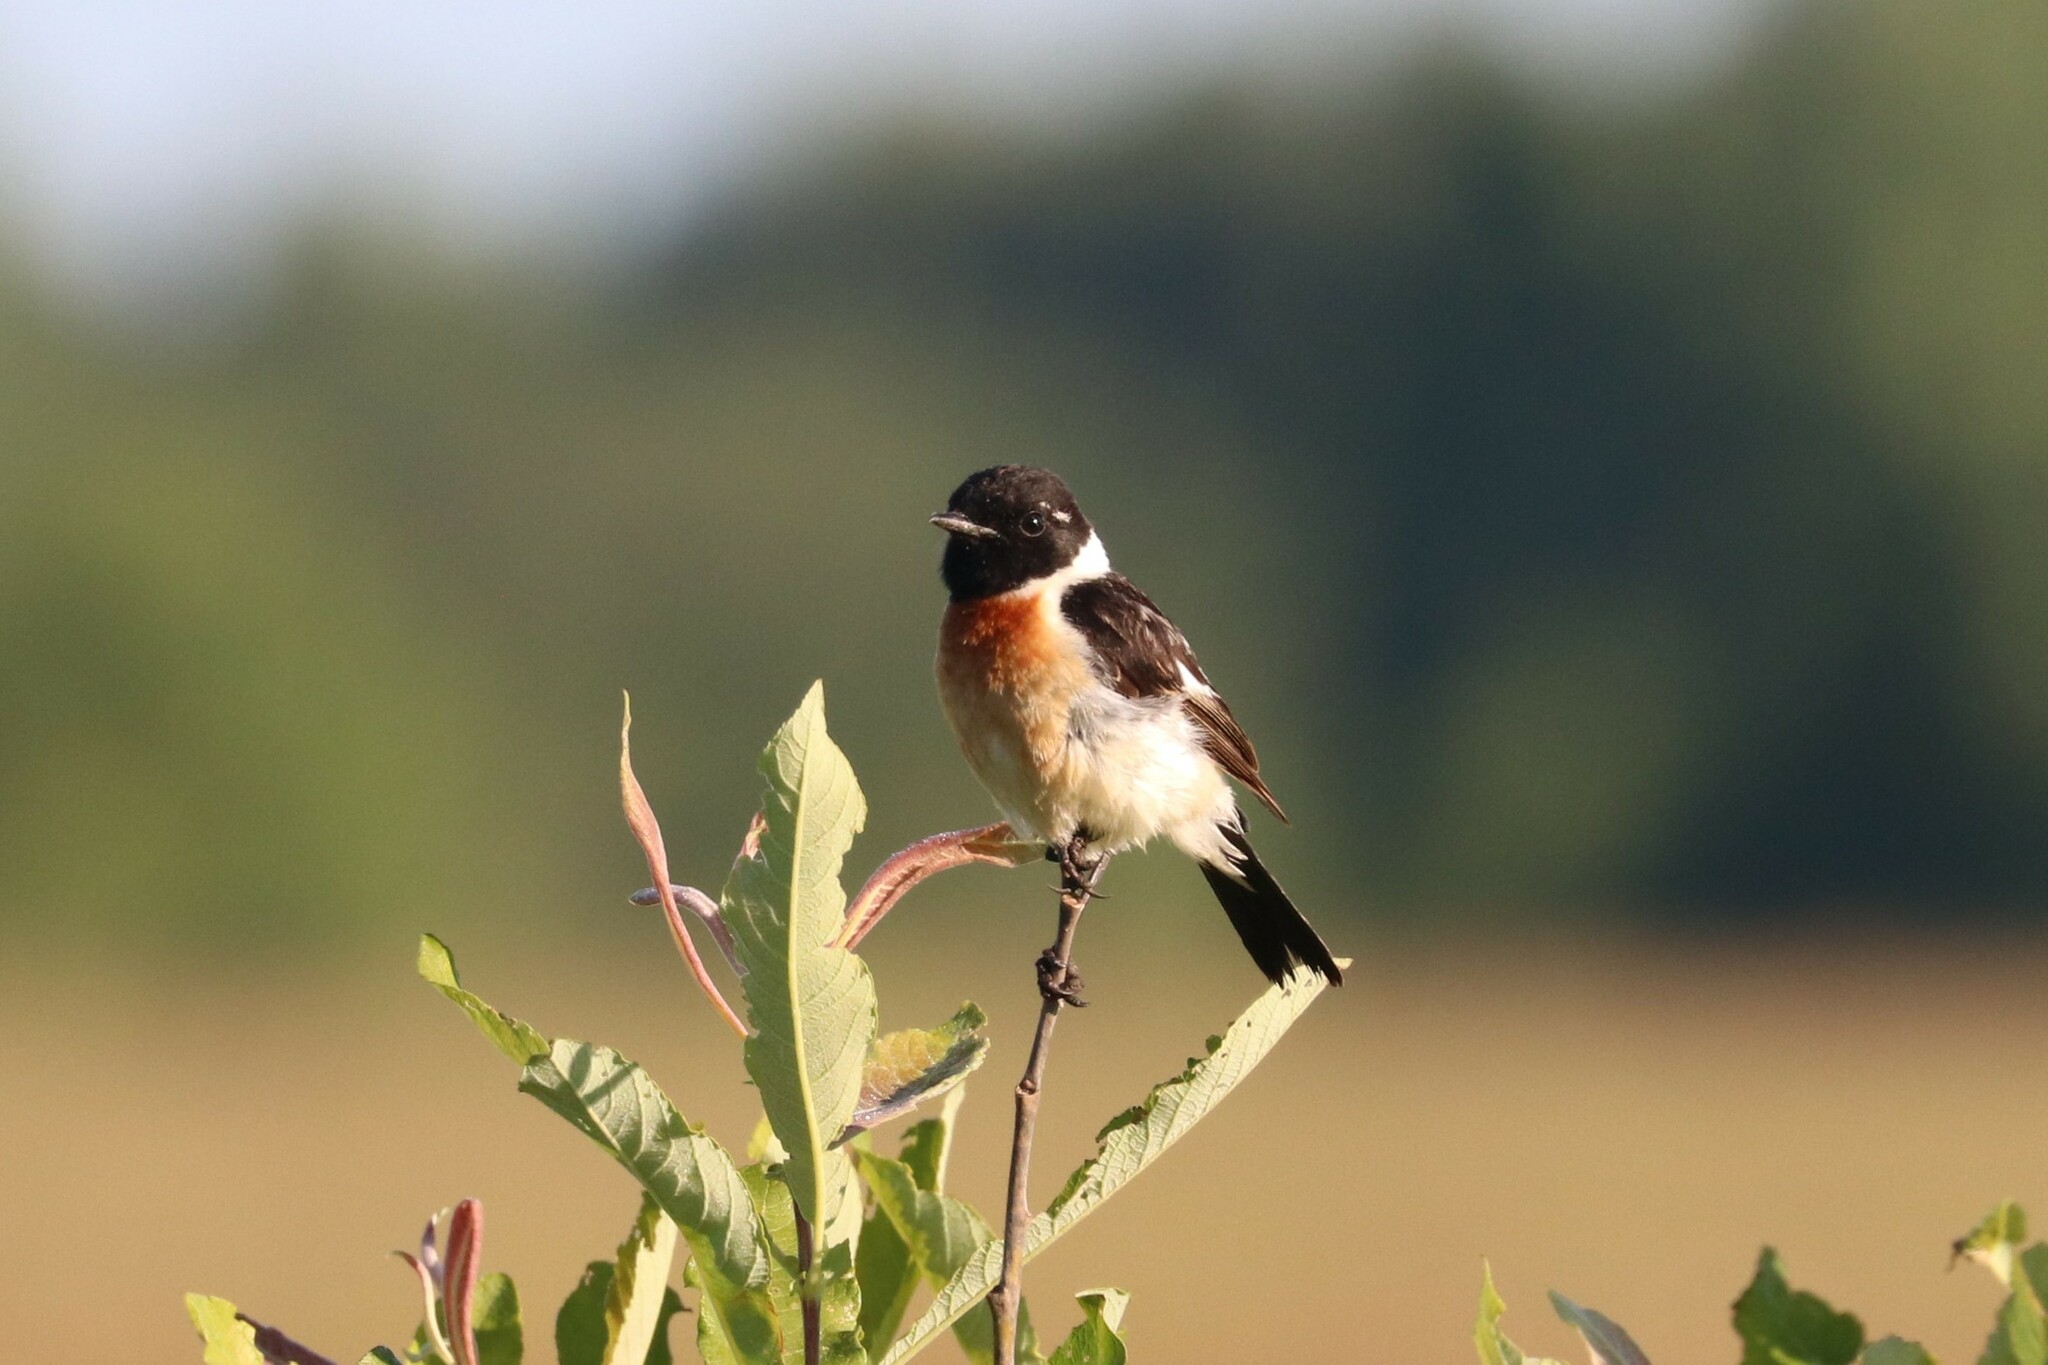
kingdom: Animalia
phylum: Chordata
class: Aves
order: Passeriformes
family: Muscicapidae
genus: Saxicola
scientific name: Saxicola maurus
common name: Siberian stonechat
